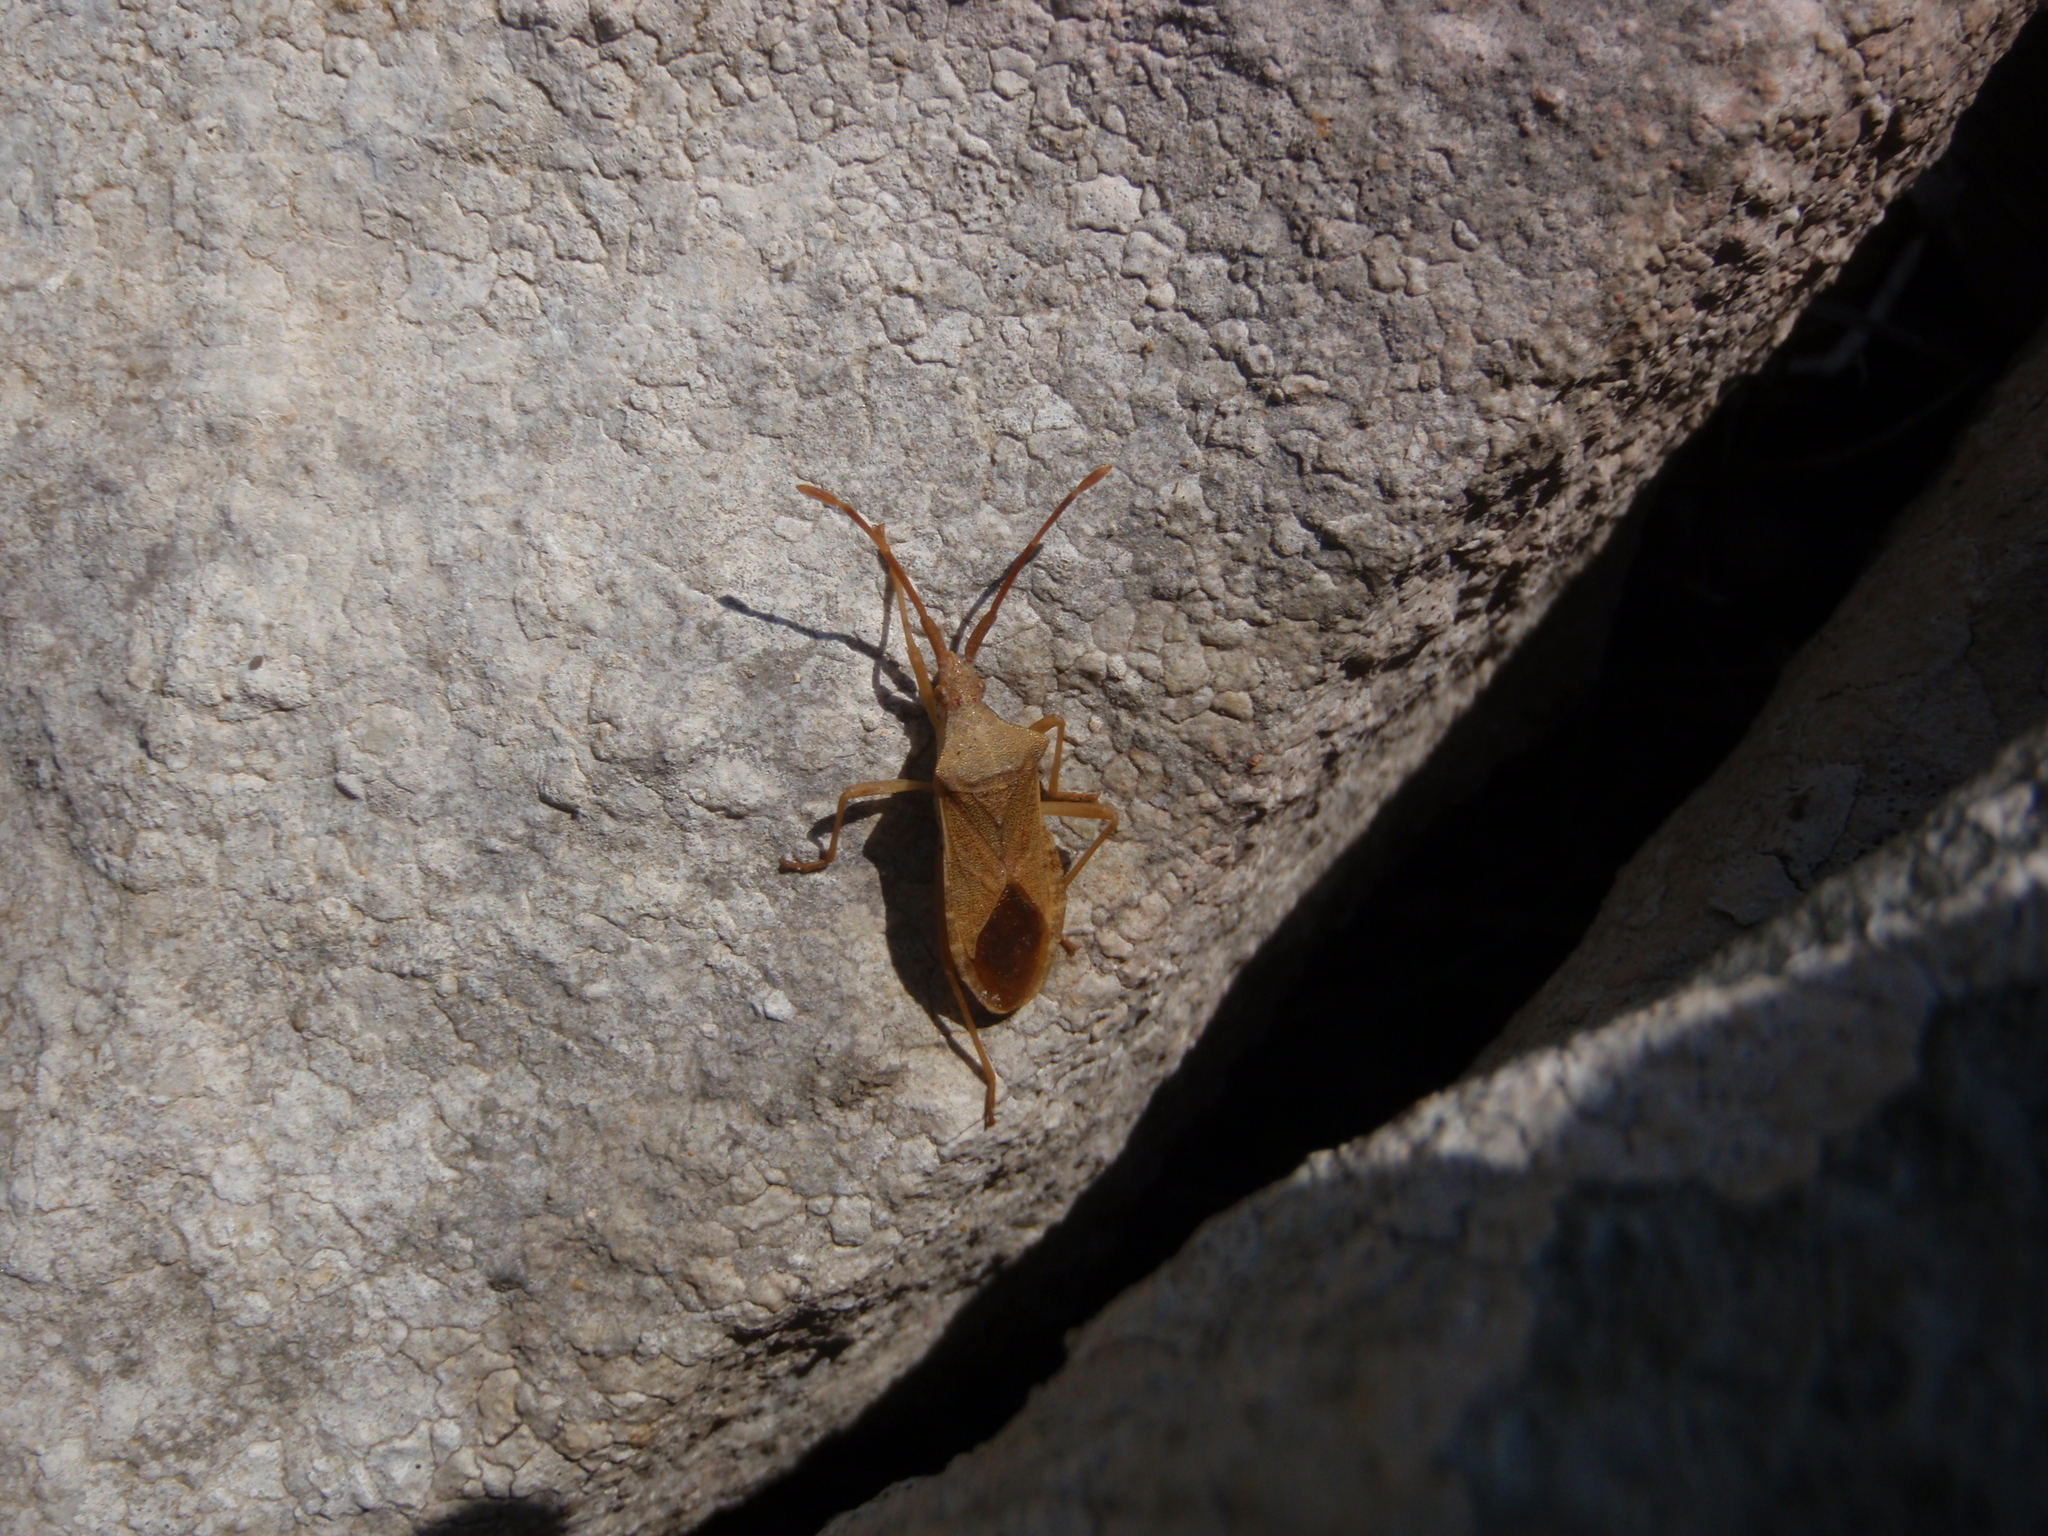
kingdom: Animalia
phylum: Arthropoda
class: Insecta
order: Hemiptera
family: Coreidae
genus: Gonocerus
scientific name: Gonocerus acuteangulatus
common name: Box bug
